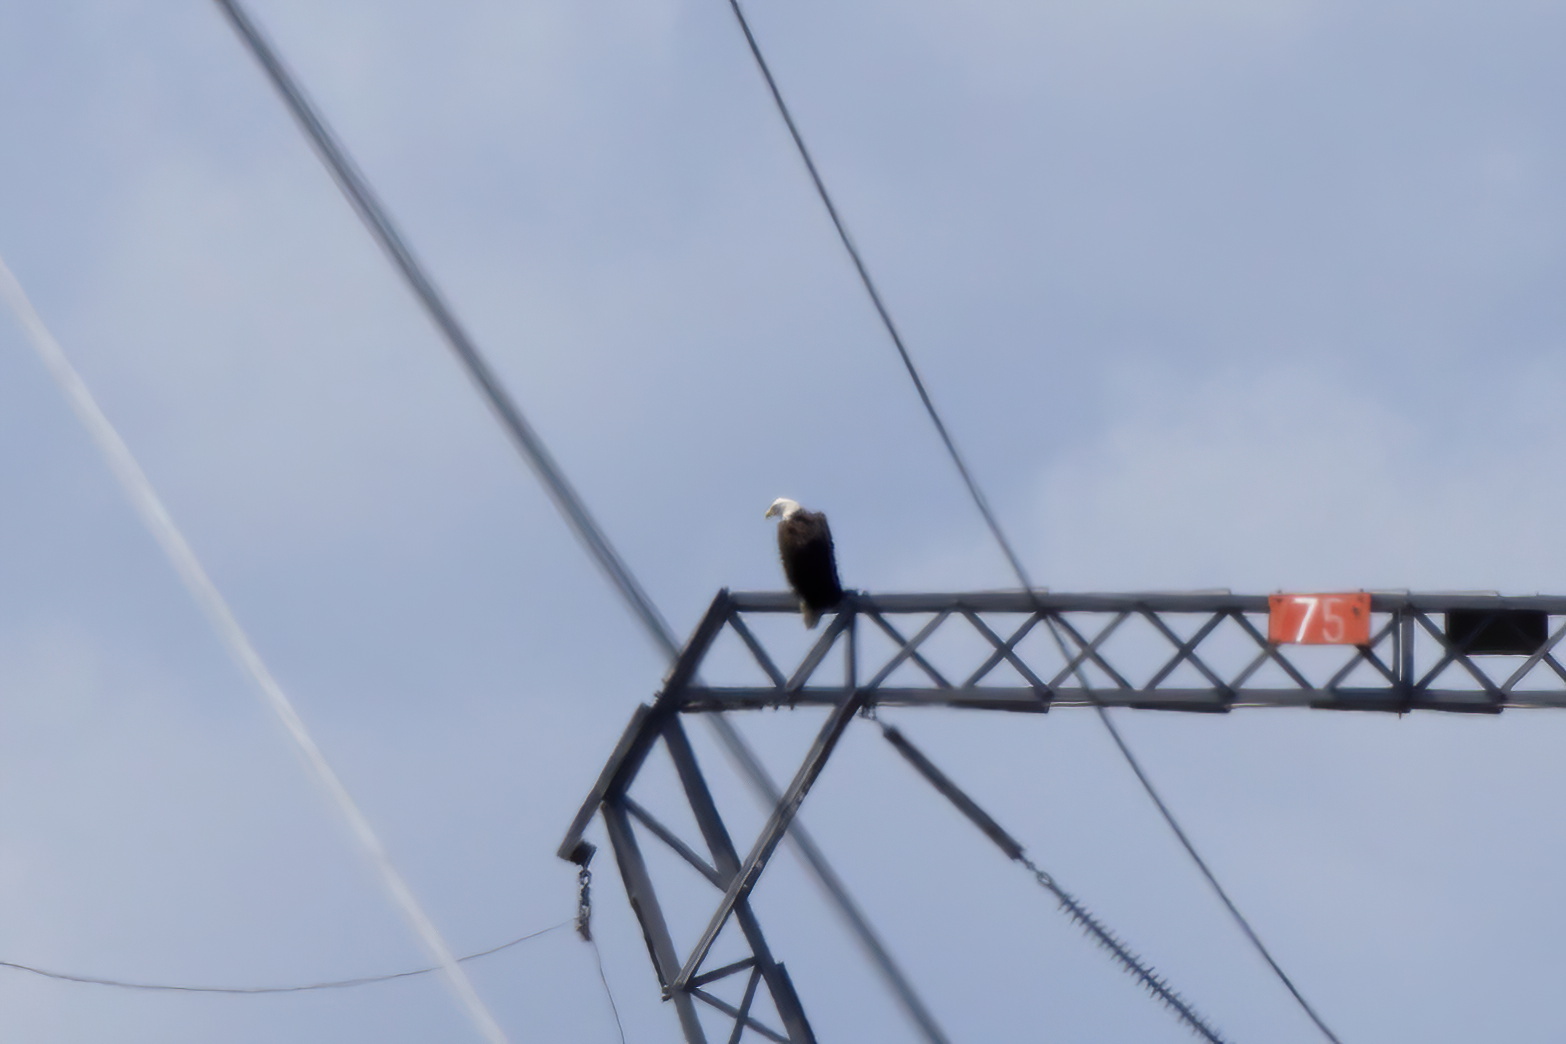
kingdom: Animalia
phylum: Chordata
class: Aves
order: Accipitriformes
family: Accipitridae
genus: Haliaeetus
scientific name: Haliaeetus leucocephalus
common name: Bald eagle
